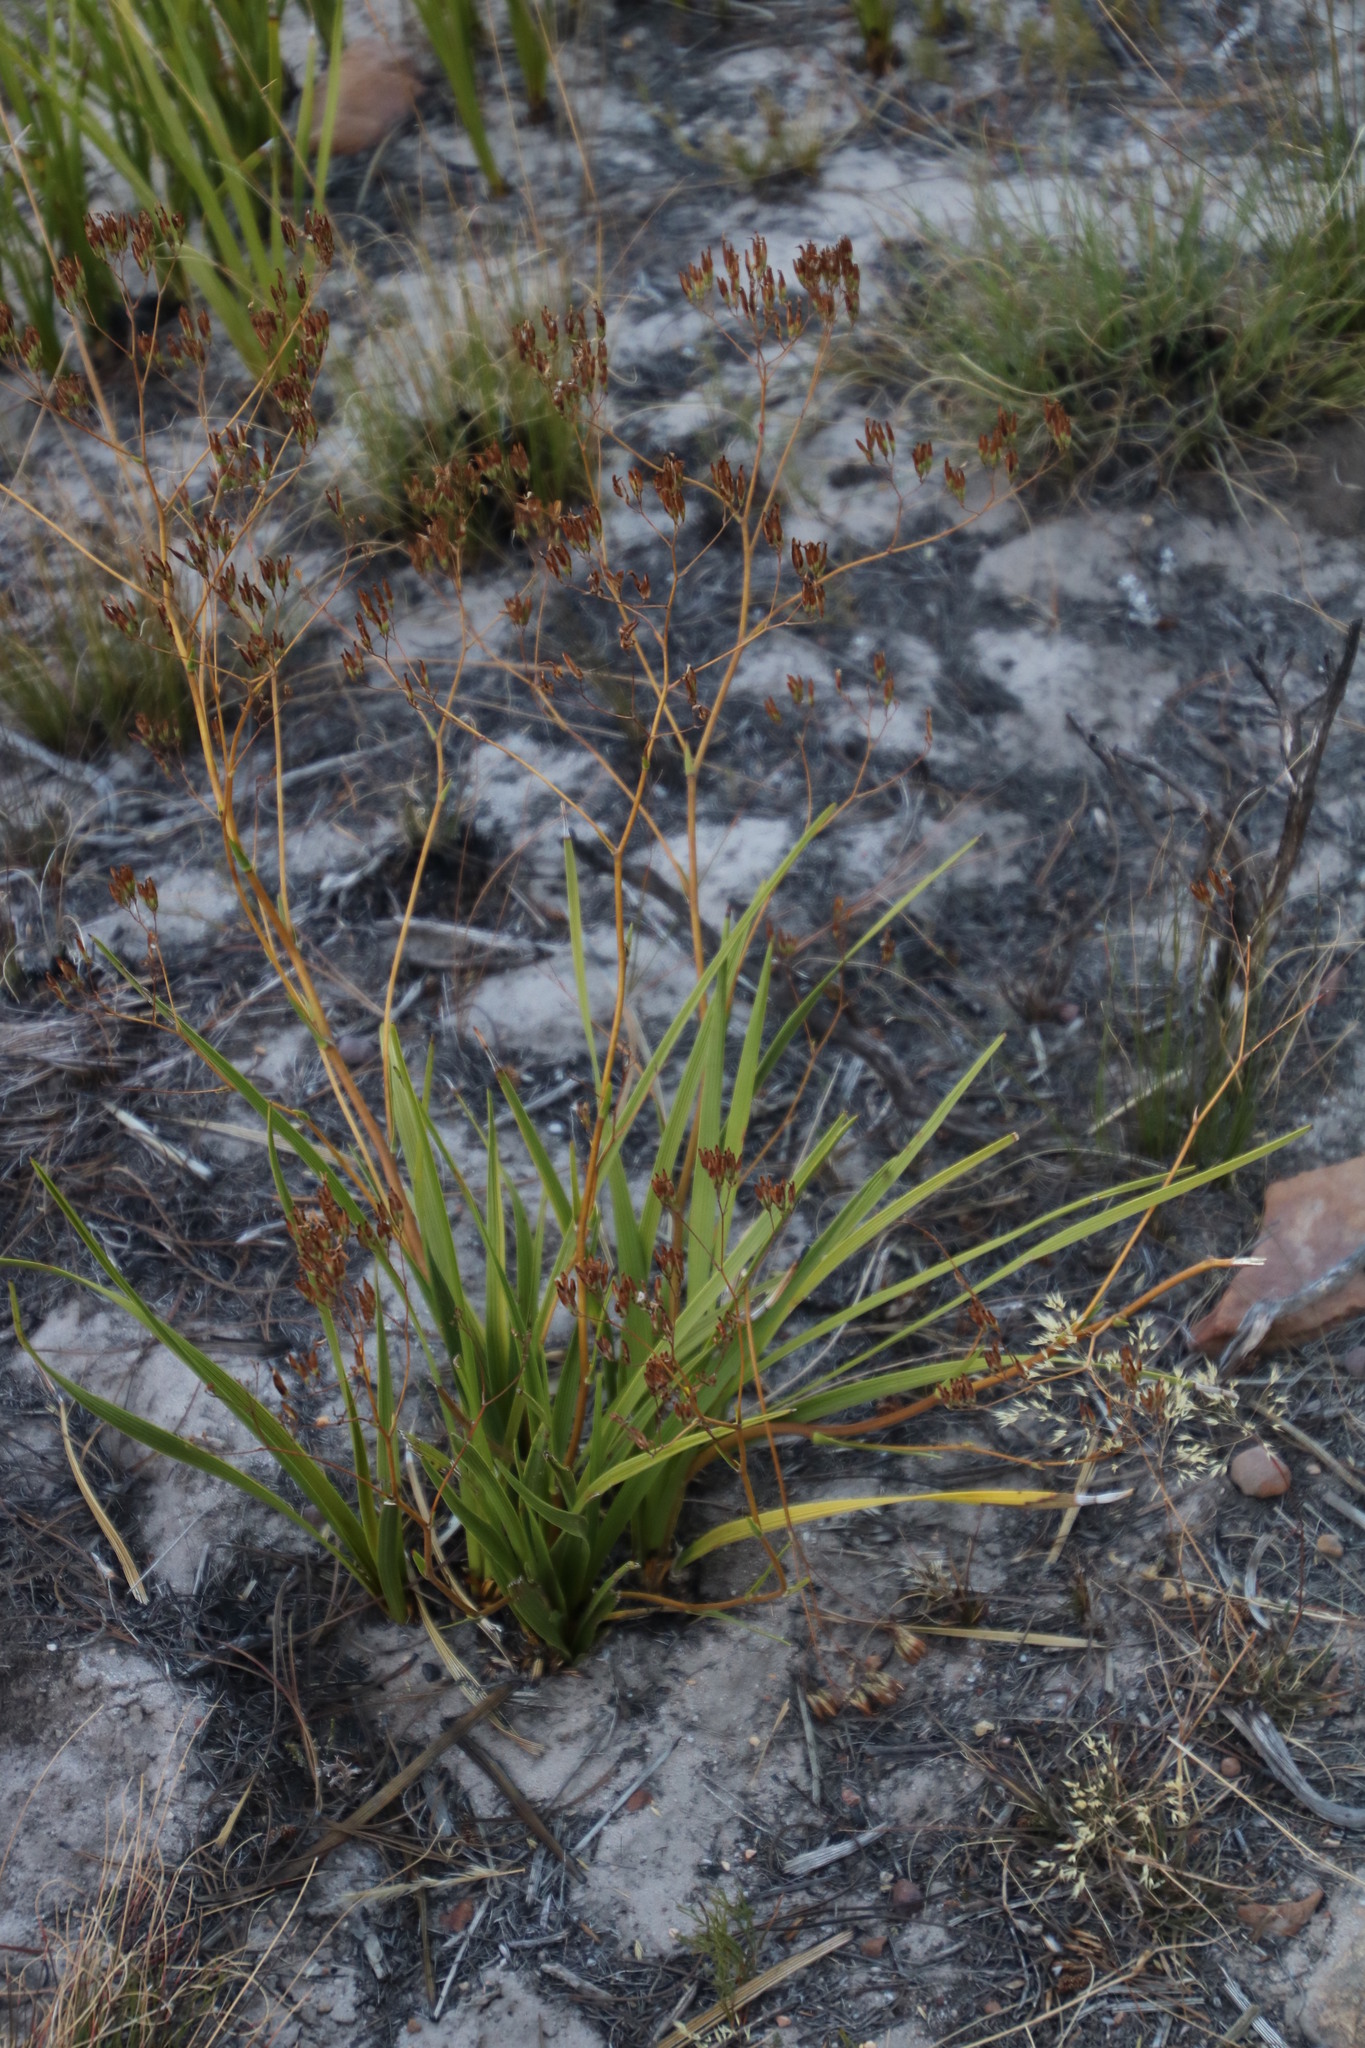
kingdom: Plantae
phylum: Tracheophyta
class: Magnoliopsida
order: Asterales
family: Asteraceae
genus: Corymbium
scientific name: Corymbium africanum
